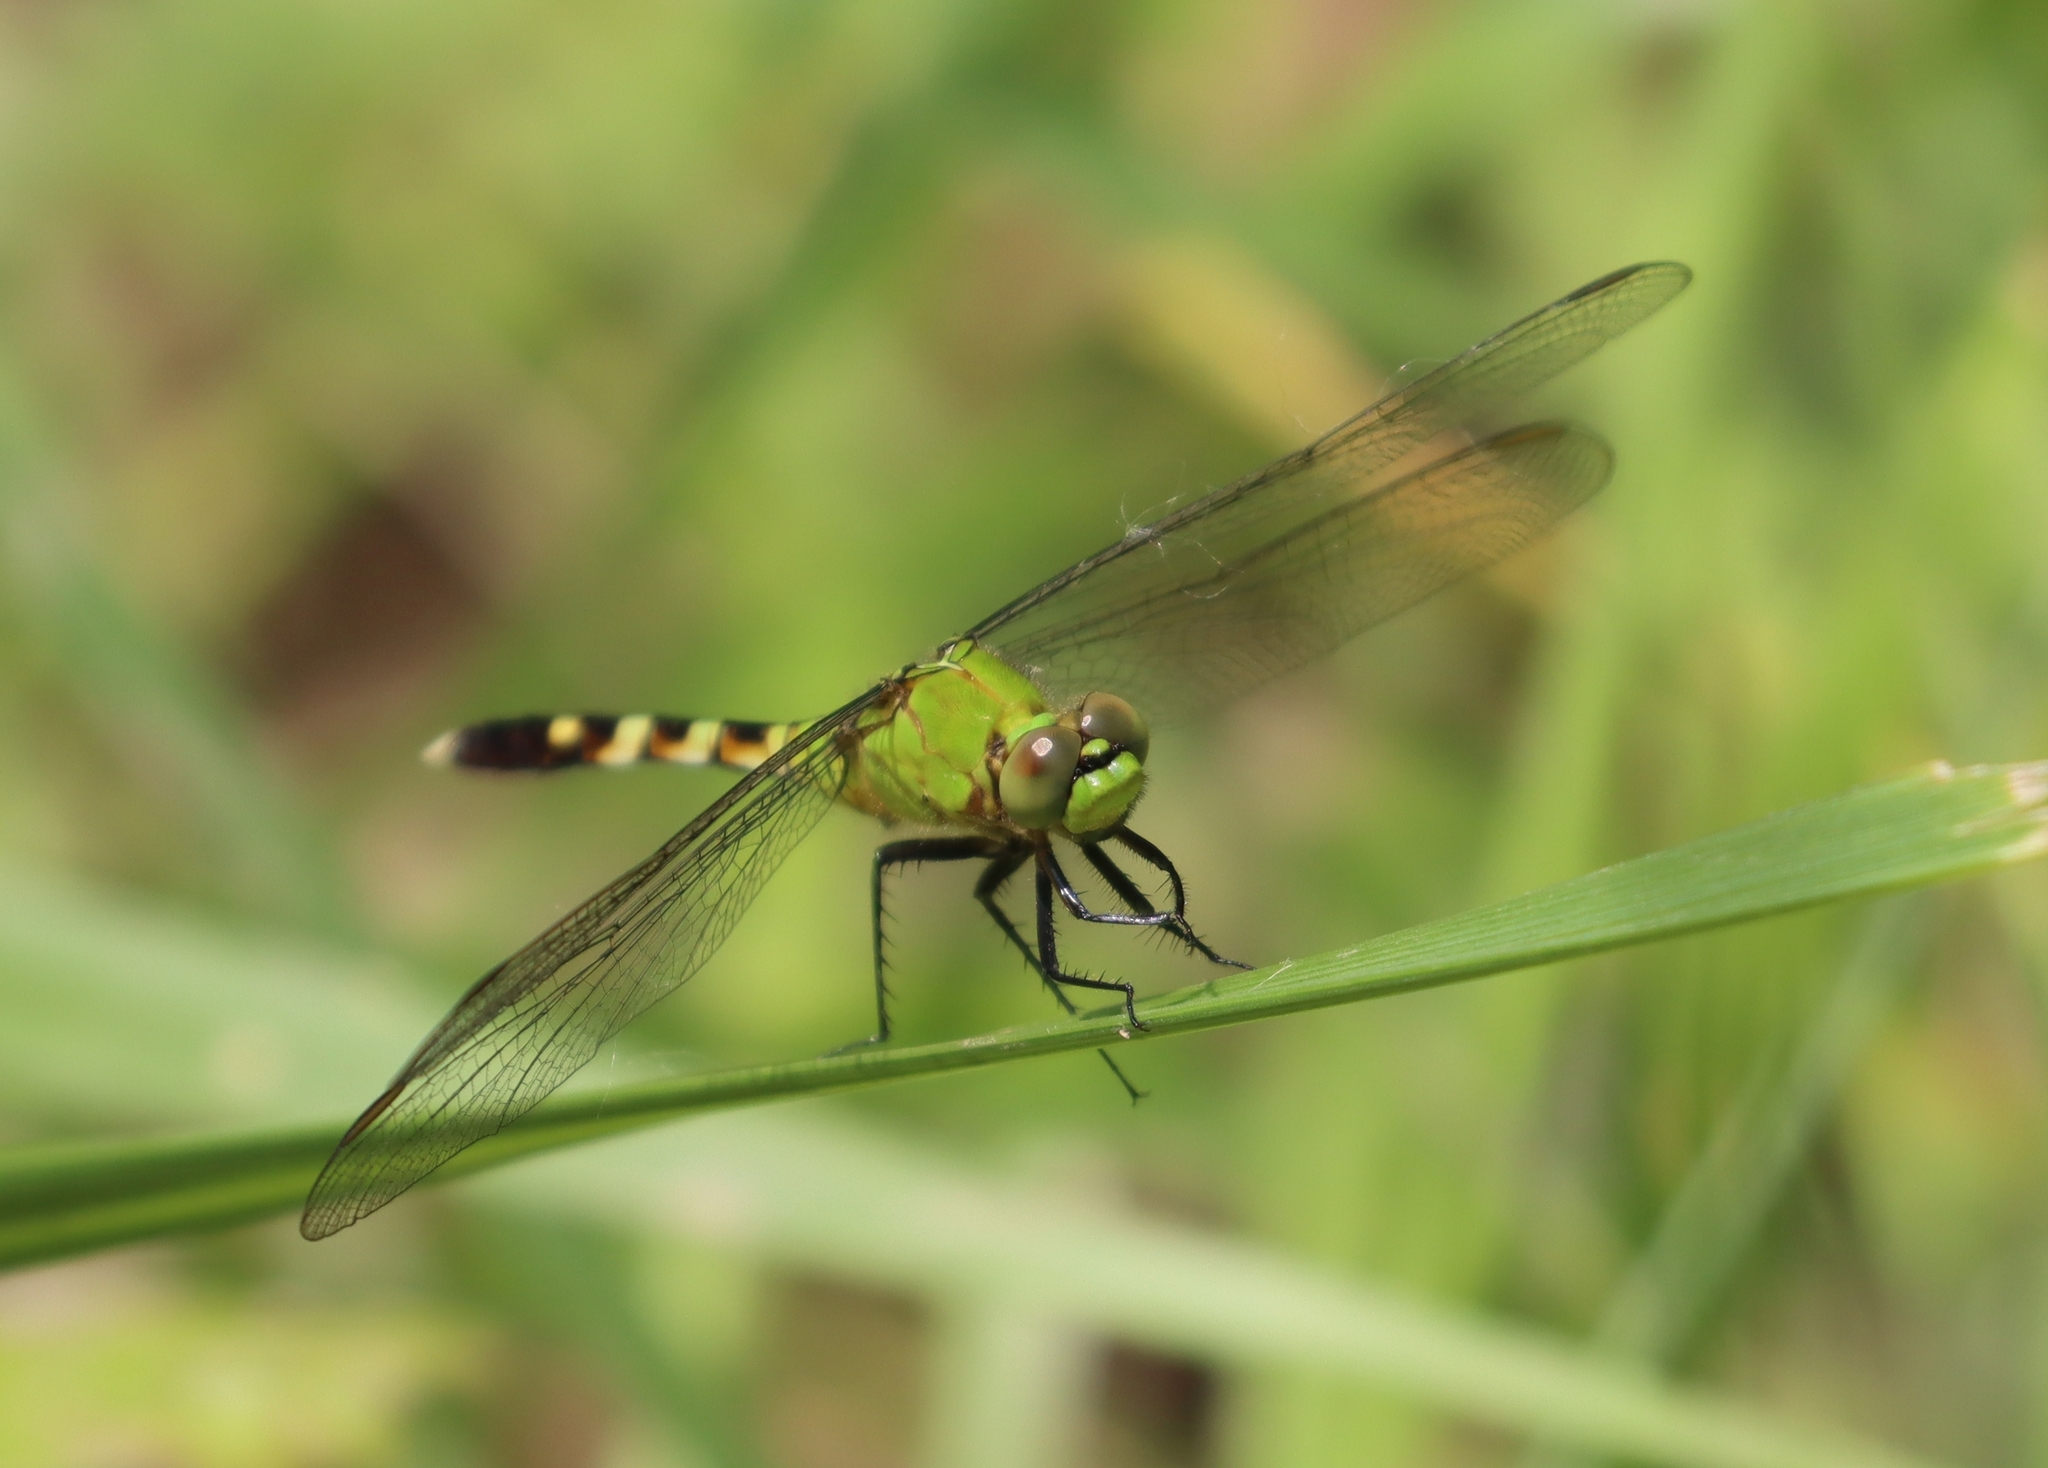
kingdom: Animalia
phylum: Arthropoda
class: Insecta
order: Odonata
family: Libellulidae
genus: Erythemis
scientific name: Erythemis simplicicollis
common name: Eastern pondhawk
